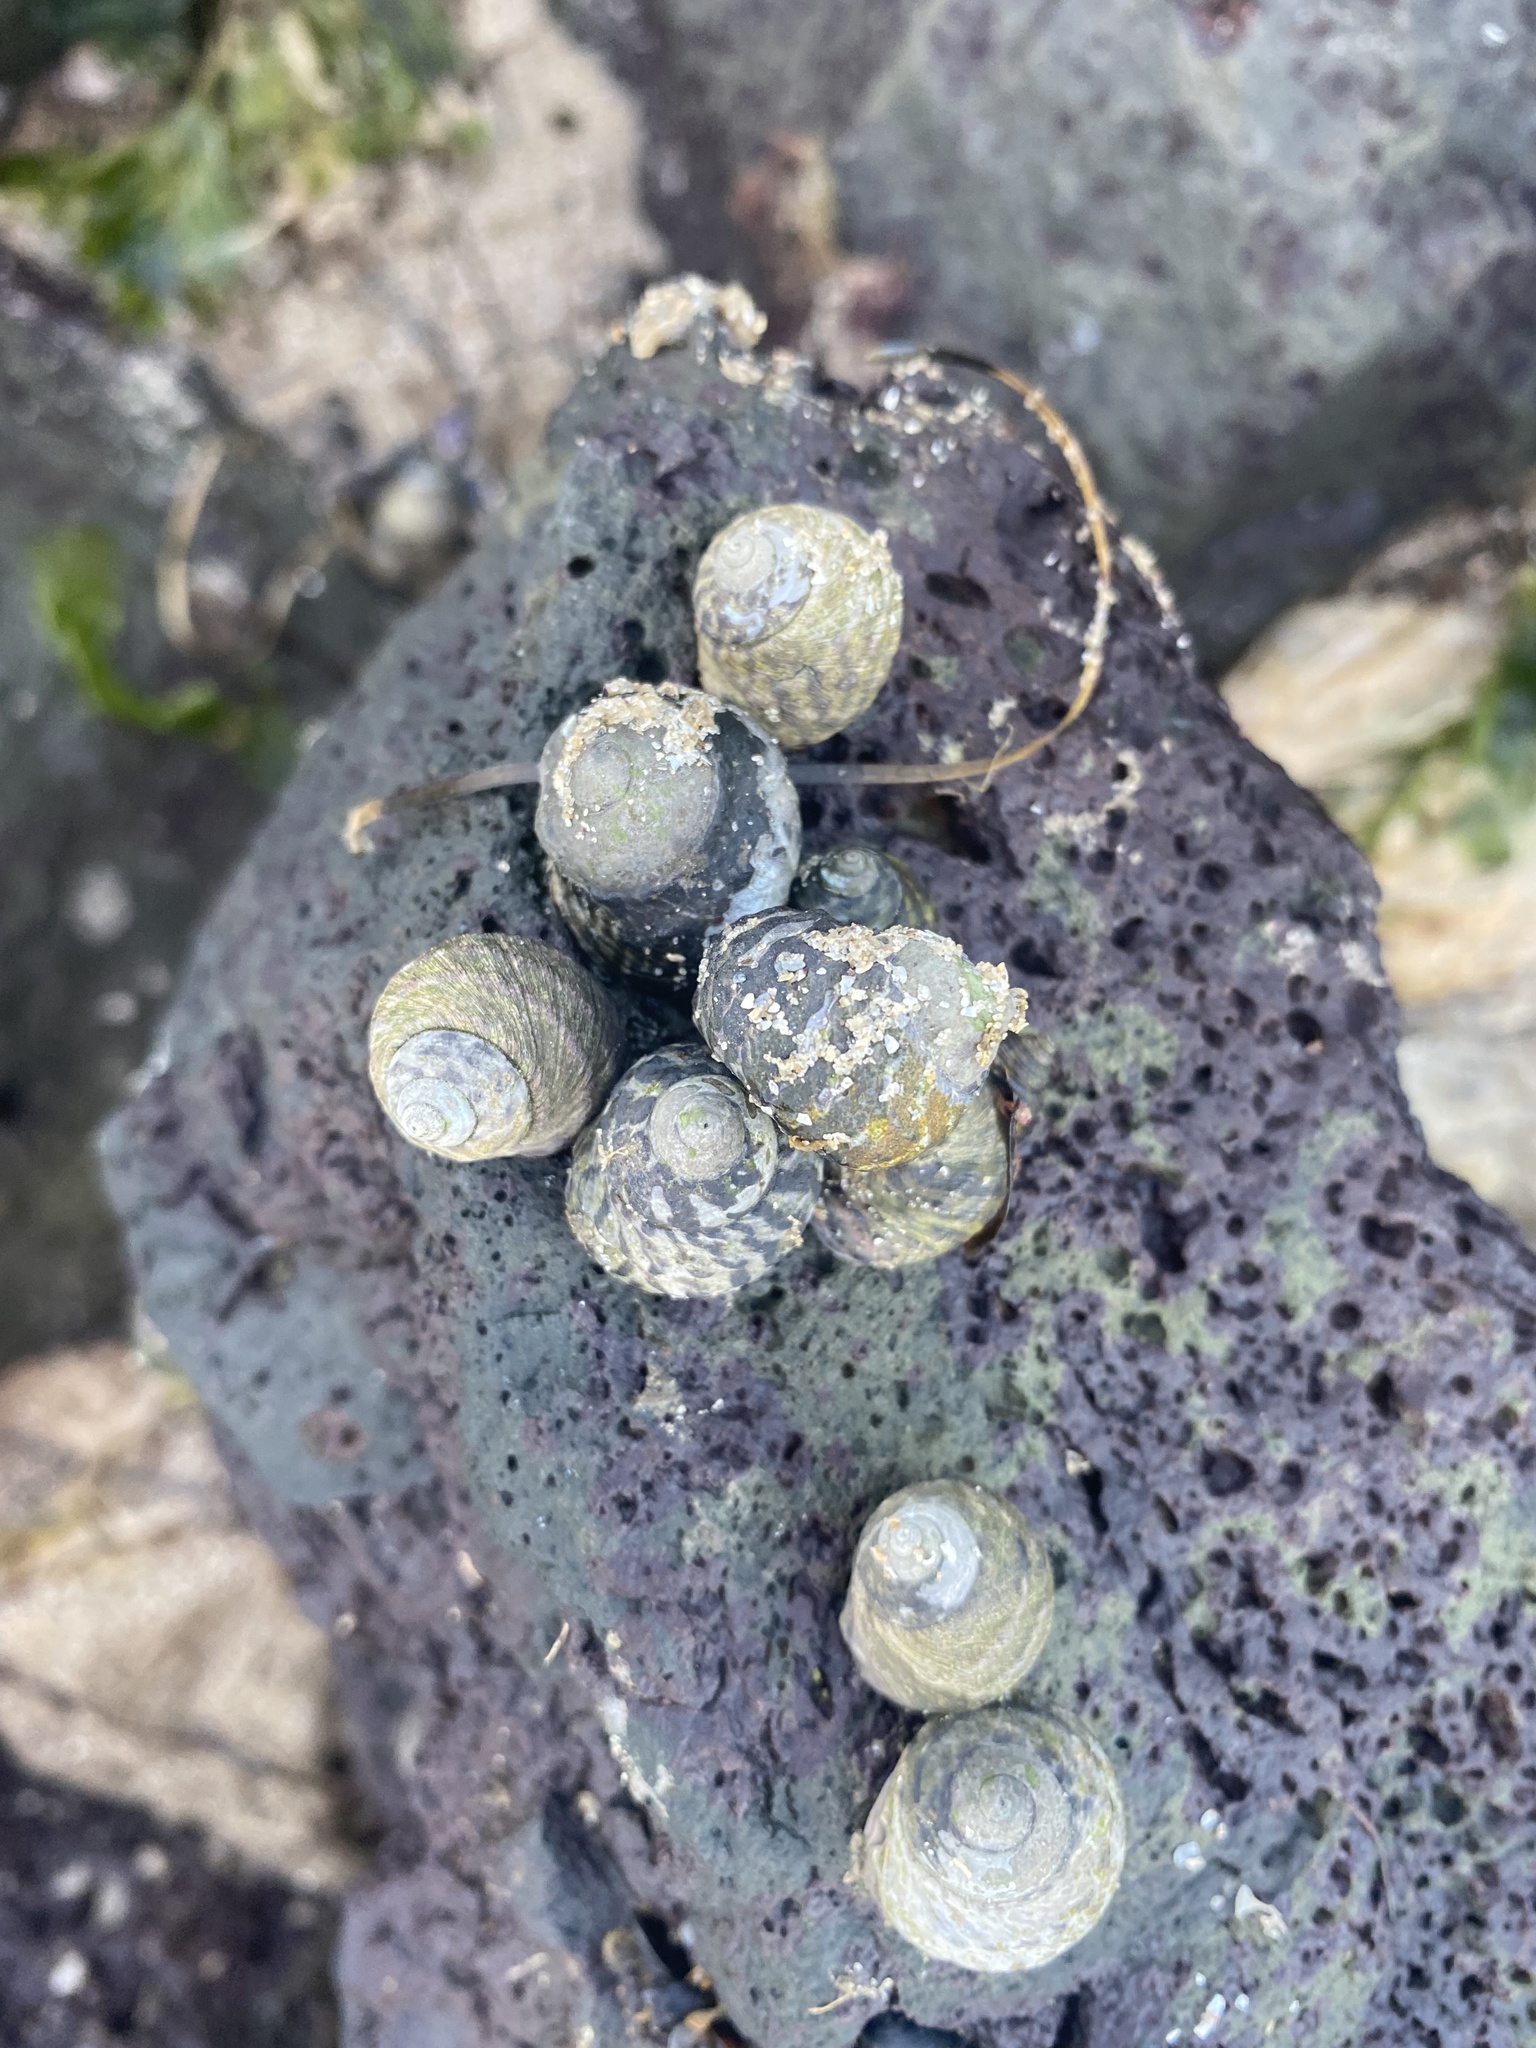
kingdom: Animalia
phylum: Mollusca
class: Gastropoda
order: Trochida
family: Trochidae
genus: Austrocochlea
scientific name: Austrocochlea porcata
